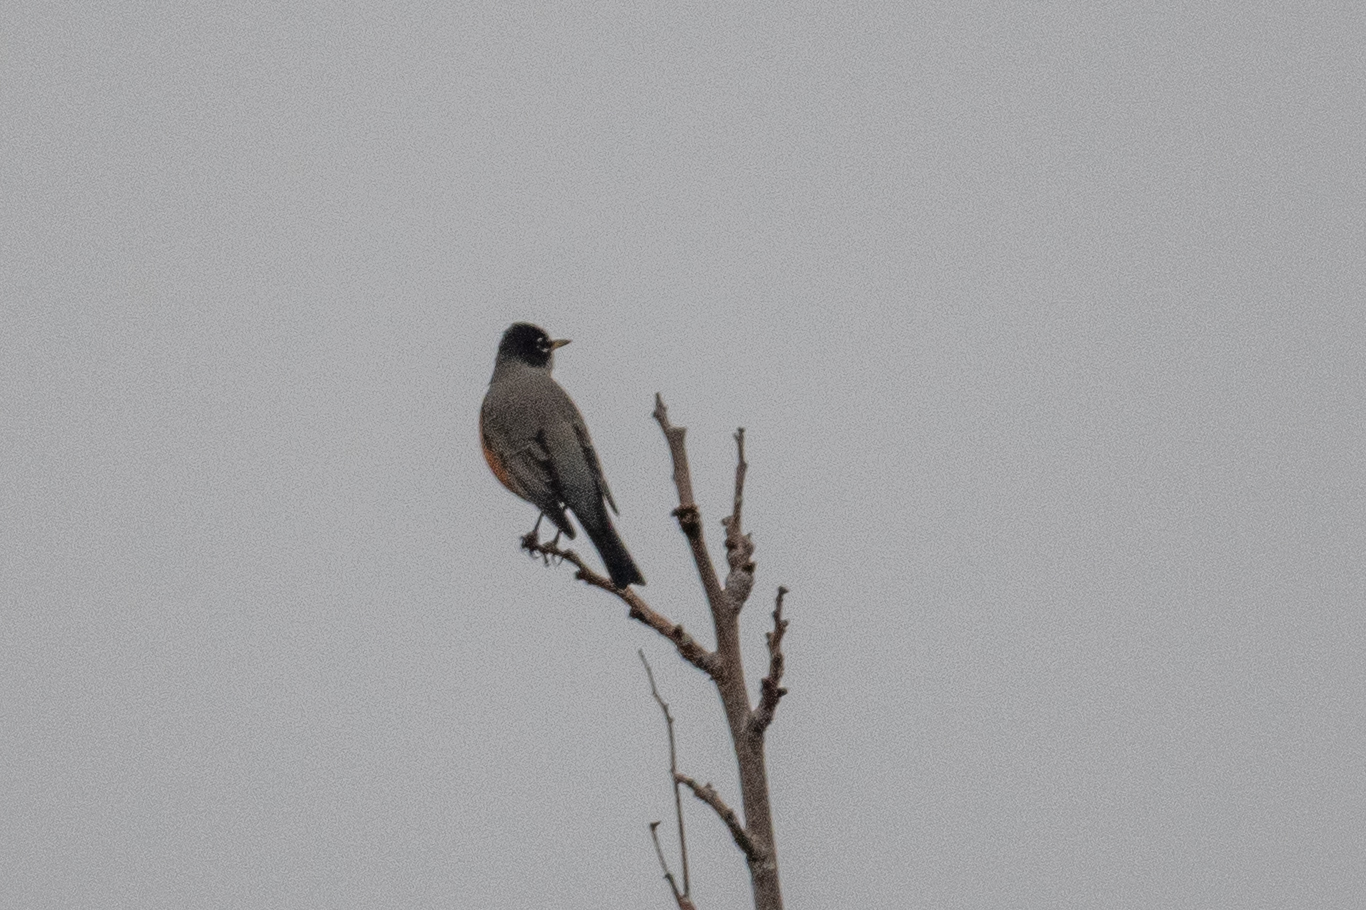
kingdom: Animalia
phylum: Chordata
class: Aves
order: Passeriformes
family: Turdidae
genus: Turdus
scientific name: Turdus migratorius
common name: American robin
